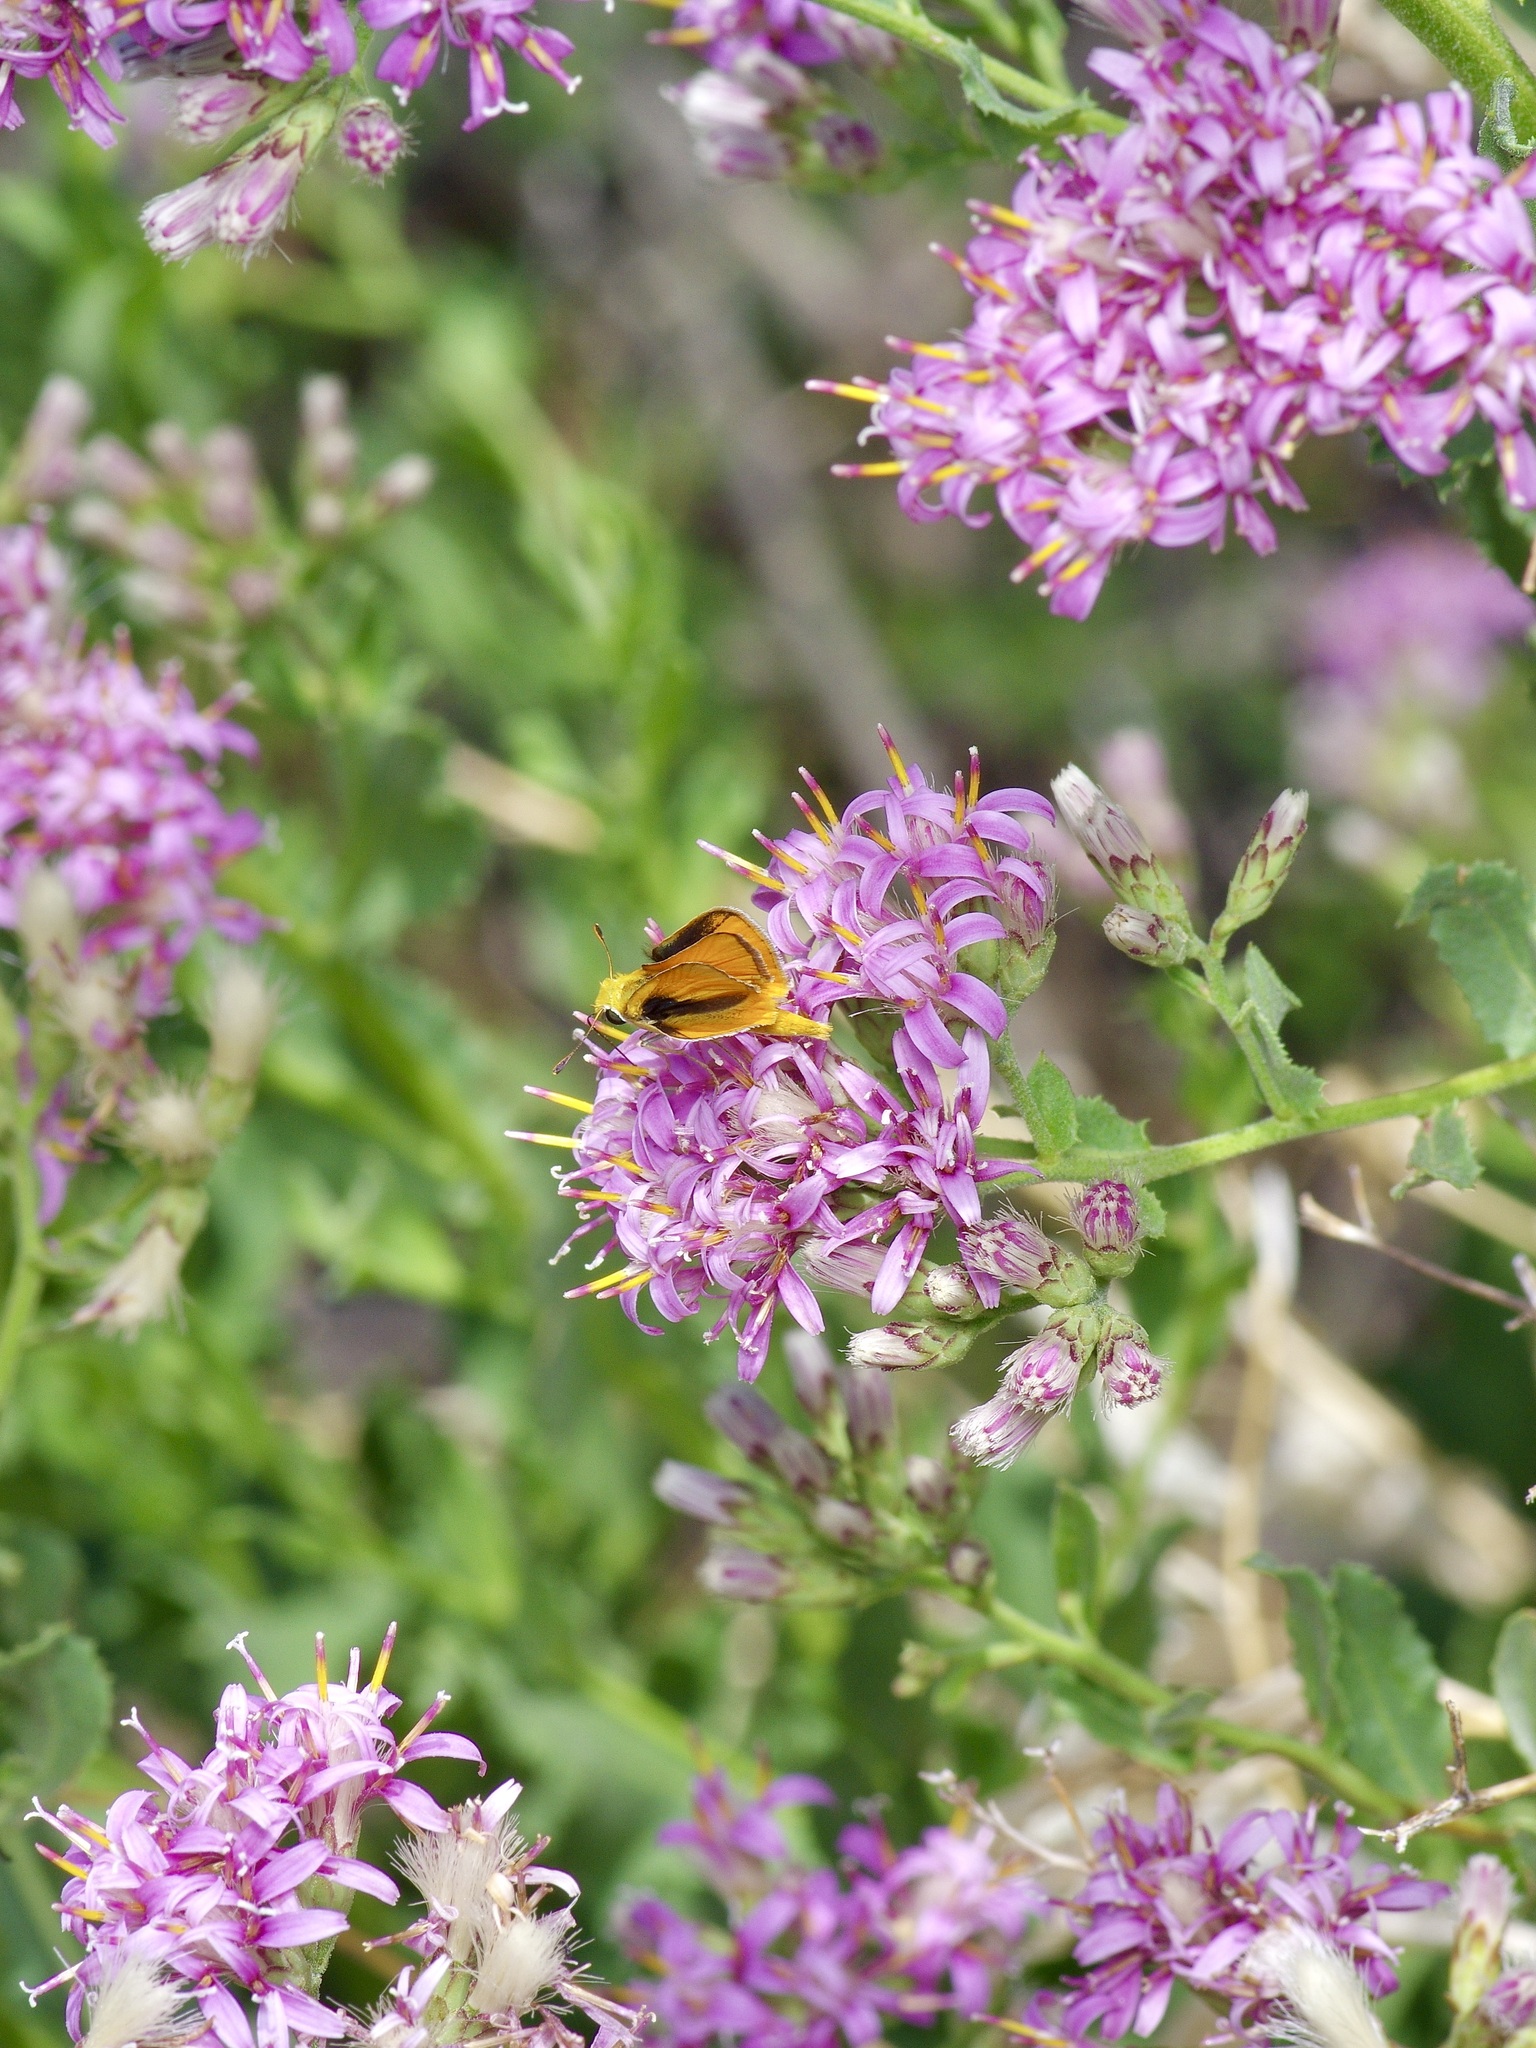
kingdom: Animalia
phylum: Arthropoda
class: Insecta
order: Lepidoptera
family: Hesperiidae
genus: Copaeodes
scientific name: Copaeodes aurantiaca
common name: Orange skipperling
